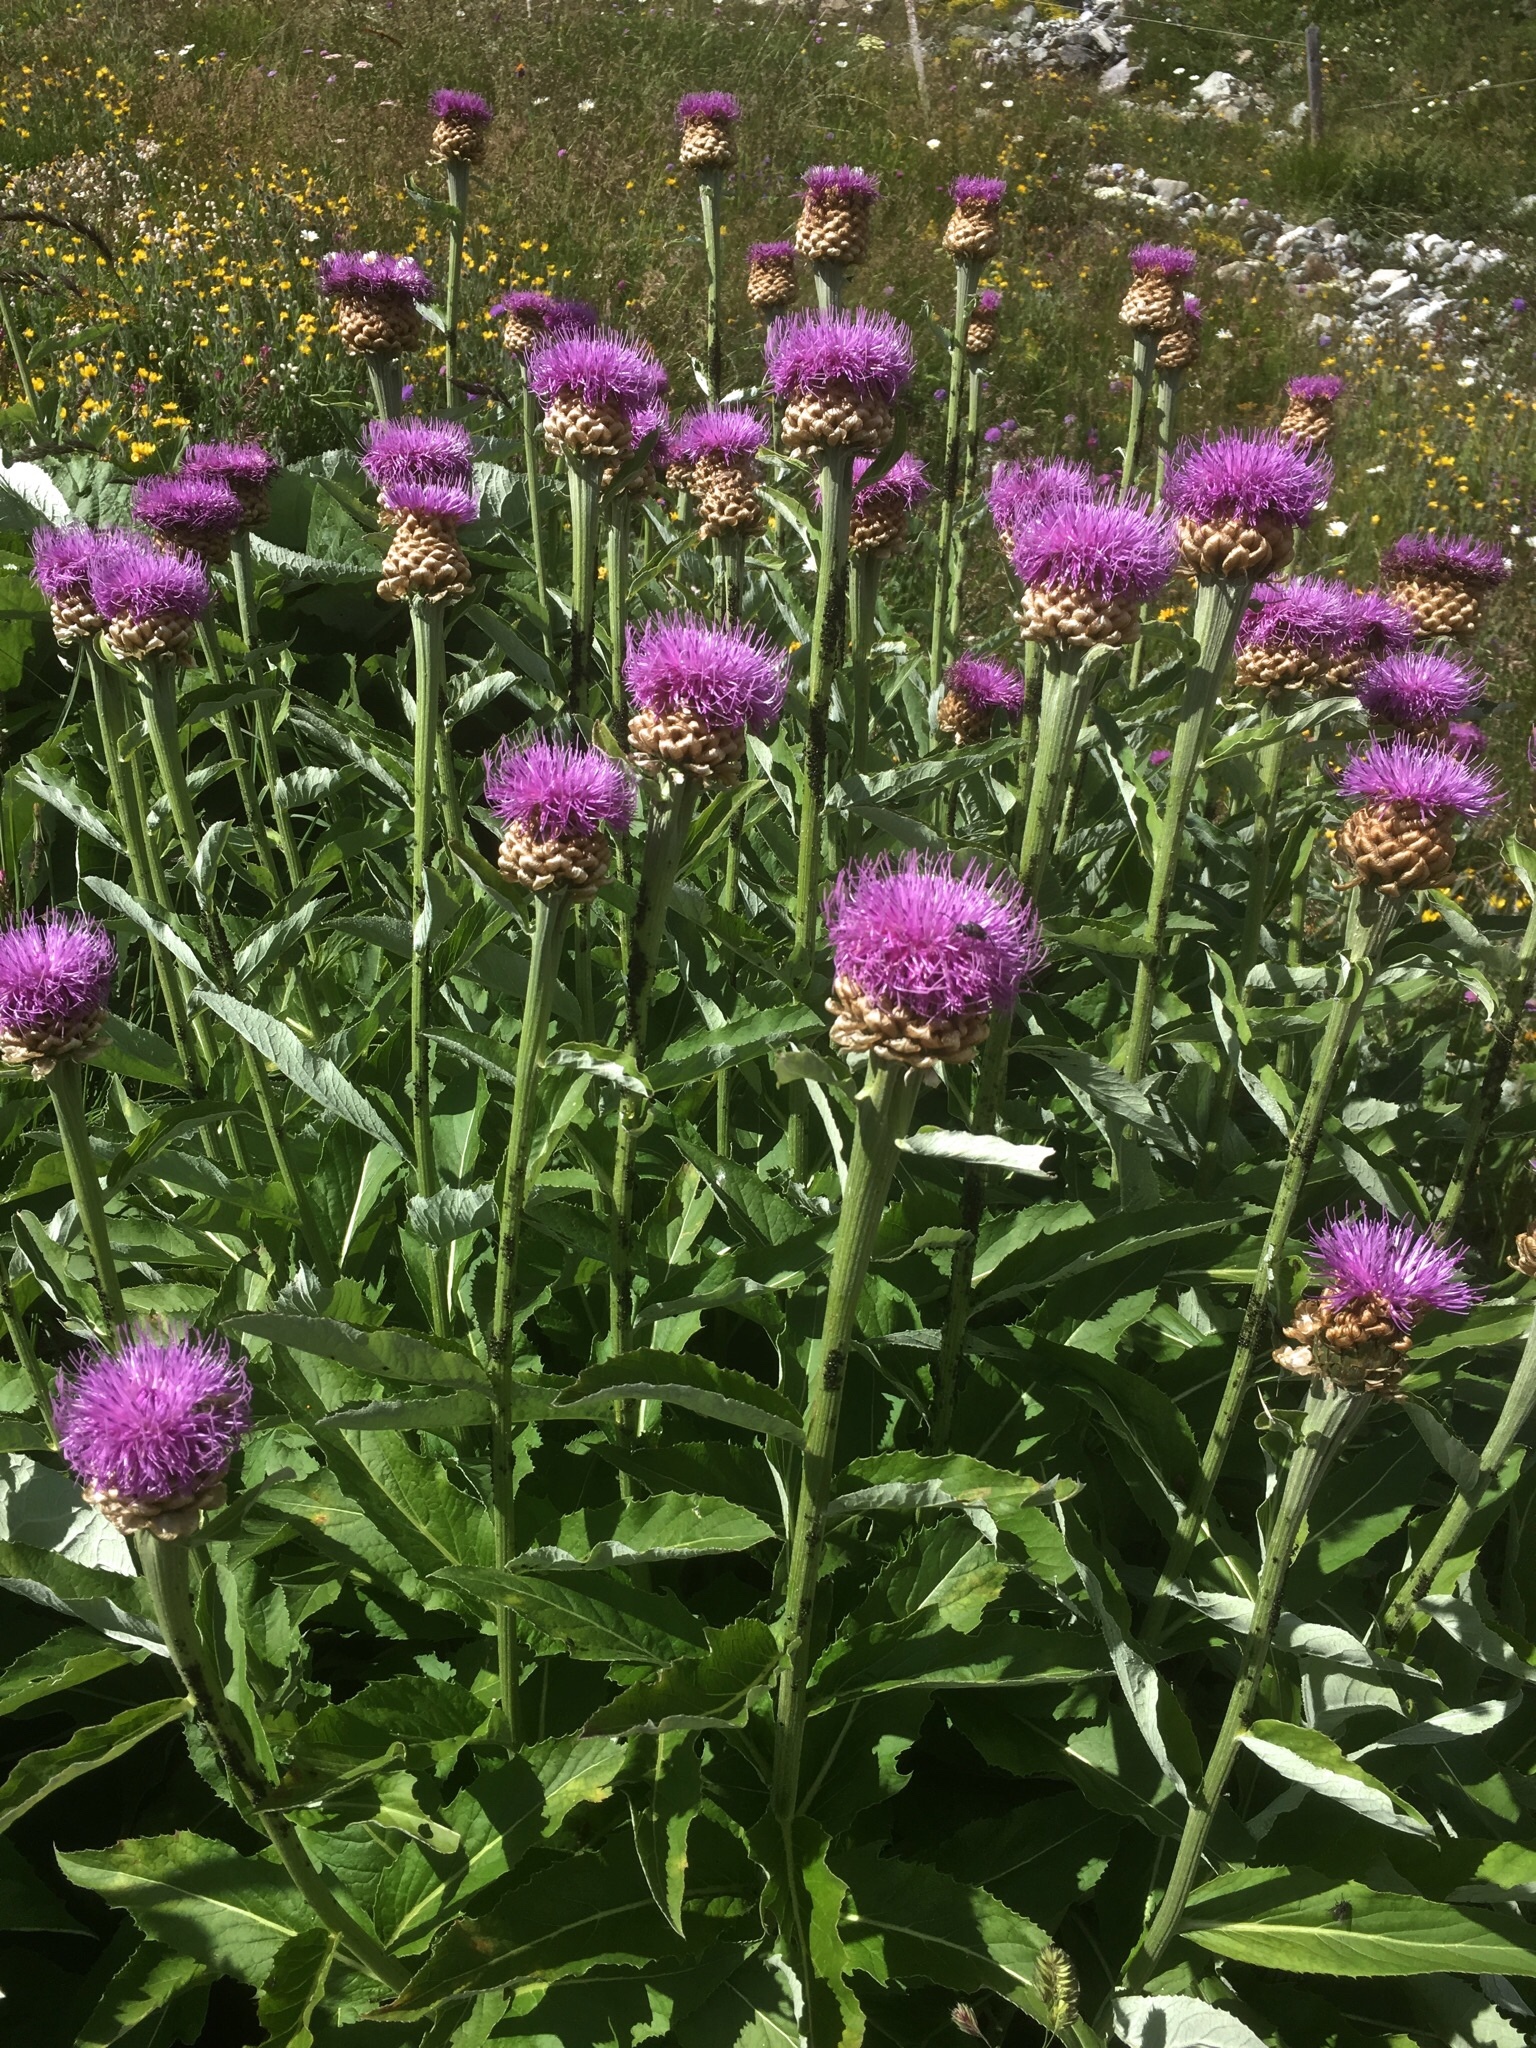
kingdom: Plantae
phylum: Tracheophyta
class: Magnoliopsida
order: Asterales
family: Asteraceae
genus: Leuzea
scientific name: Leuzea rhapontica
